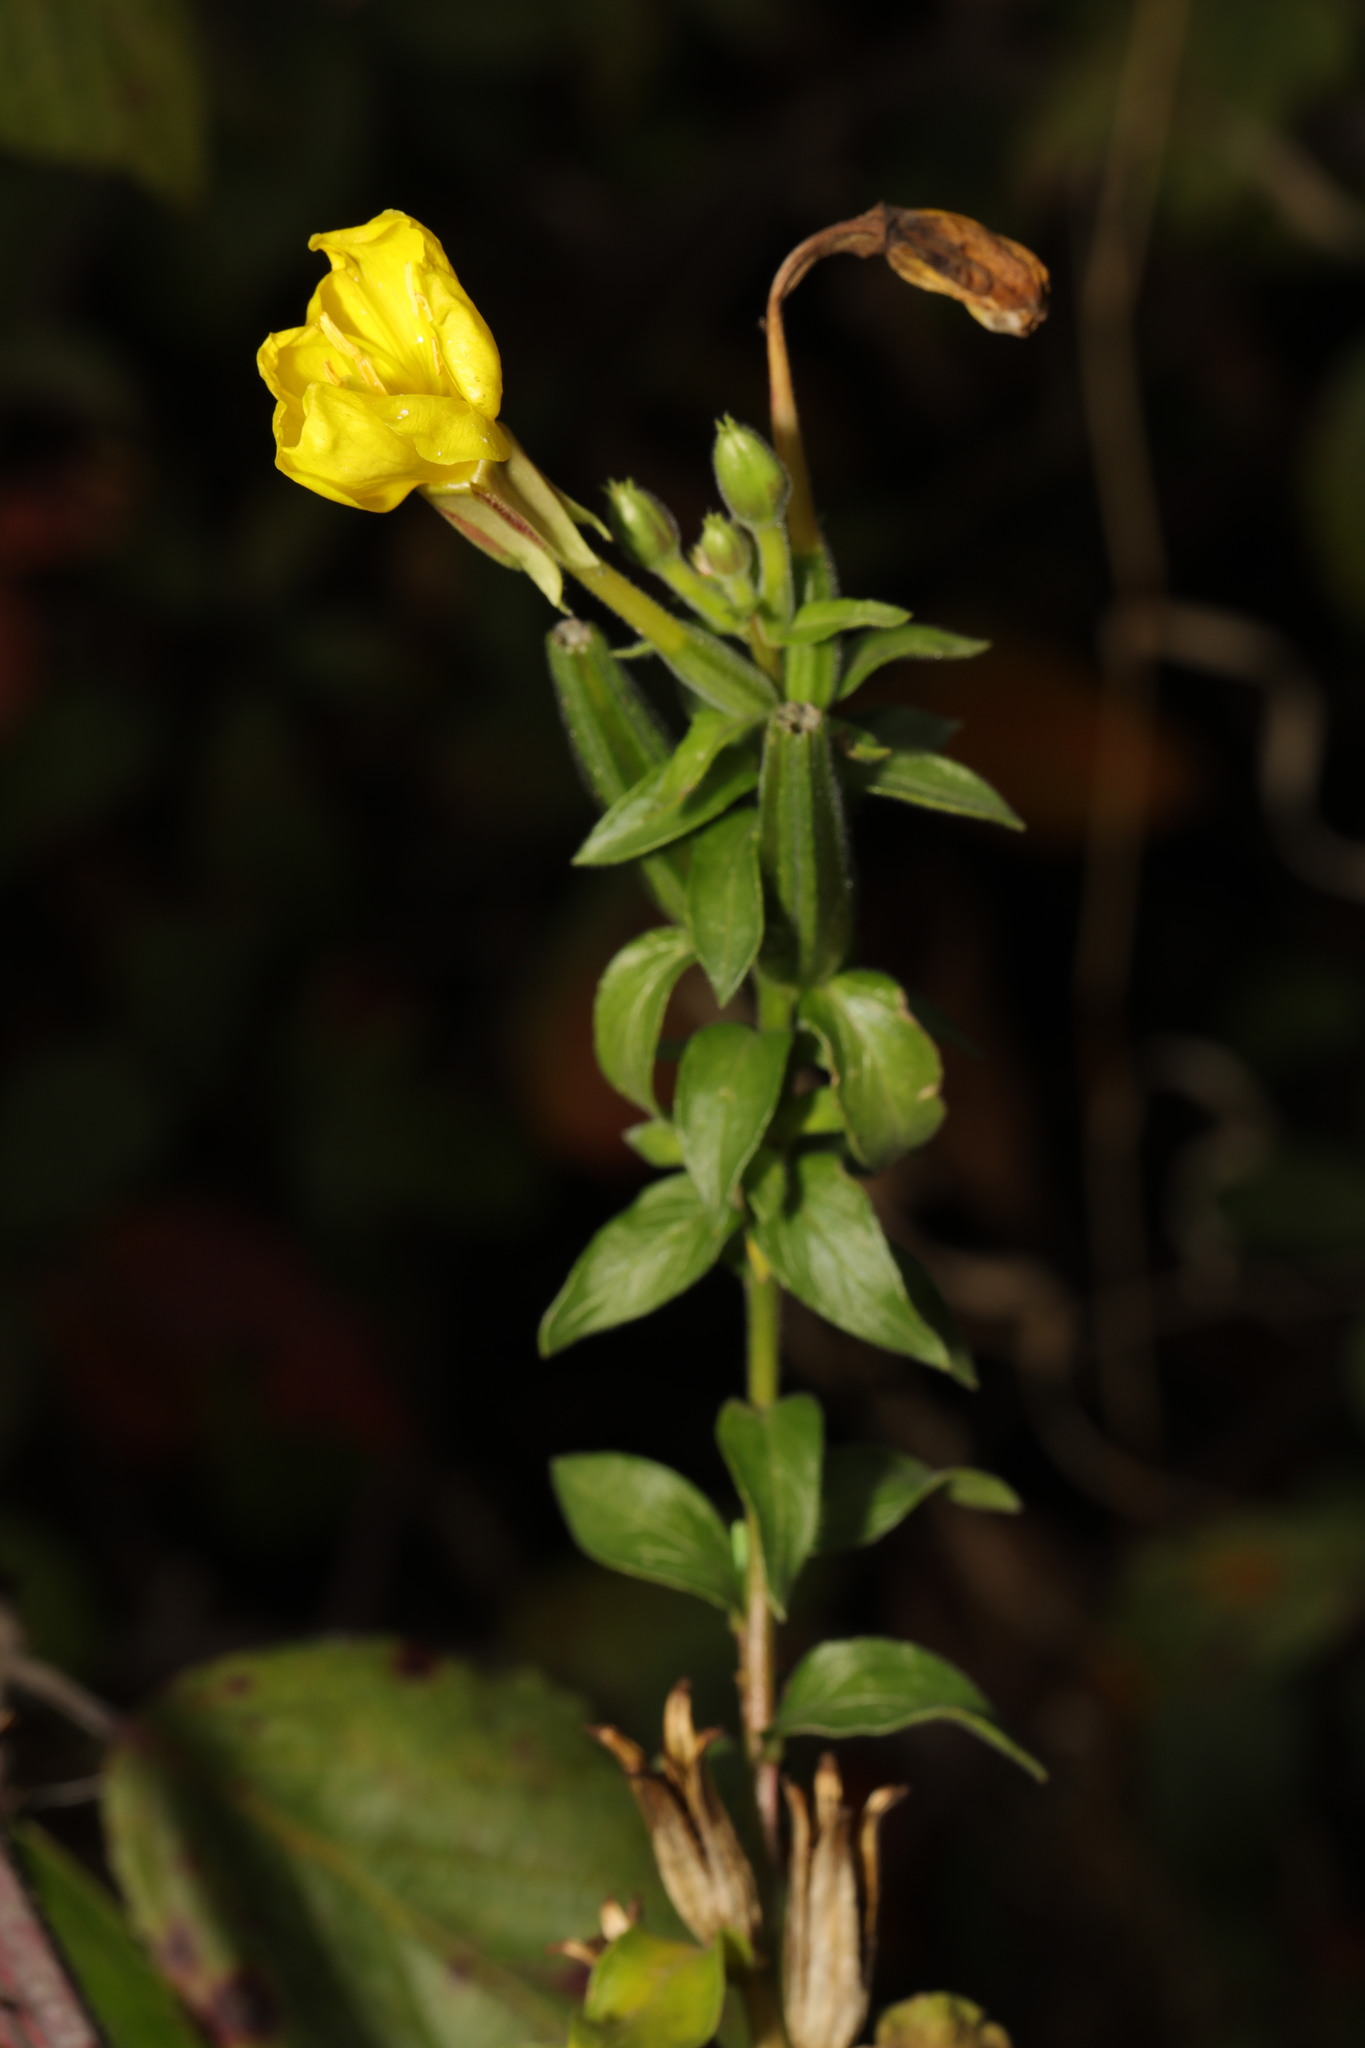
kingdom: Plantae
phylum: Tracheophyta
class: Magnoliopsida
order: Myrtales
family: Onagraceae
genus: Oenothera
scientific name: Oenothera biennis
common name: Common evening-primrose
